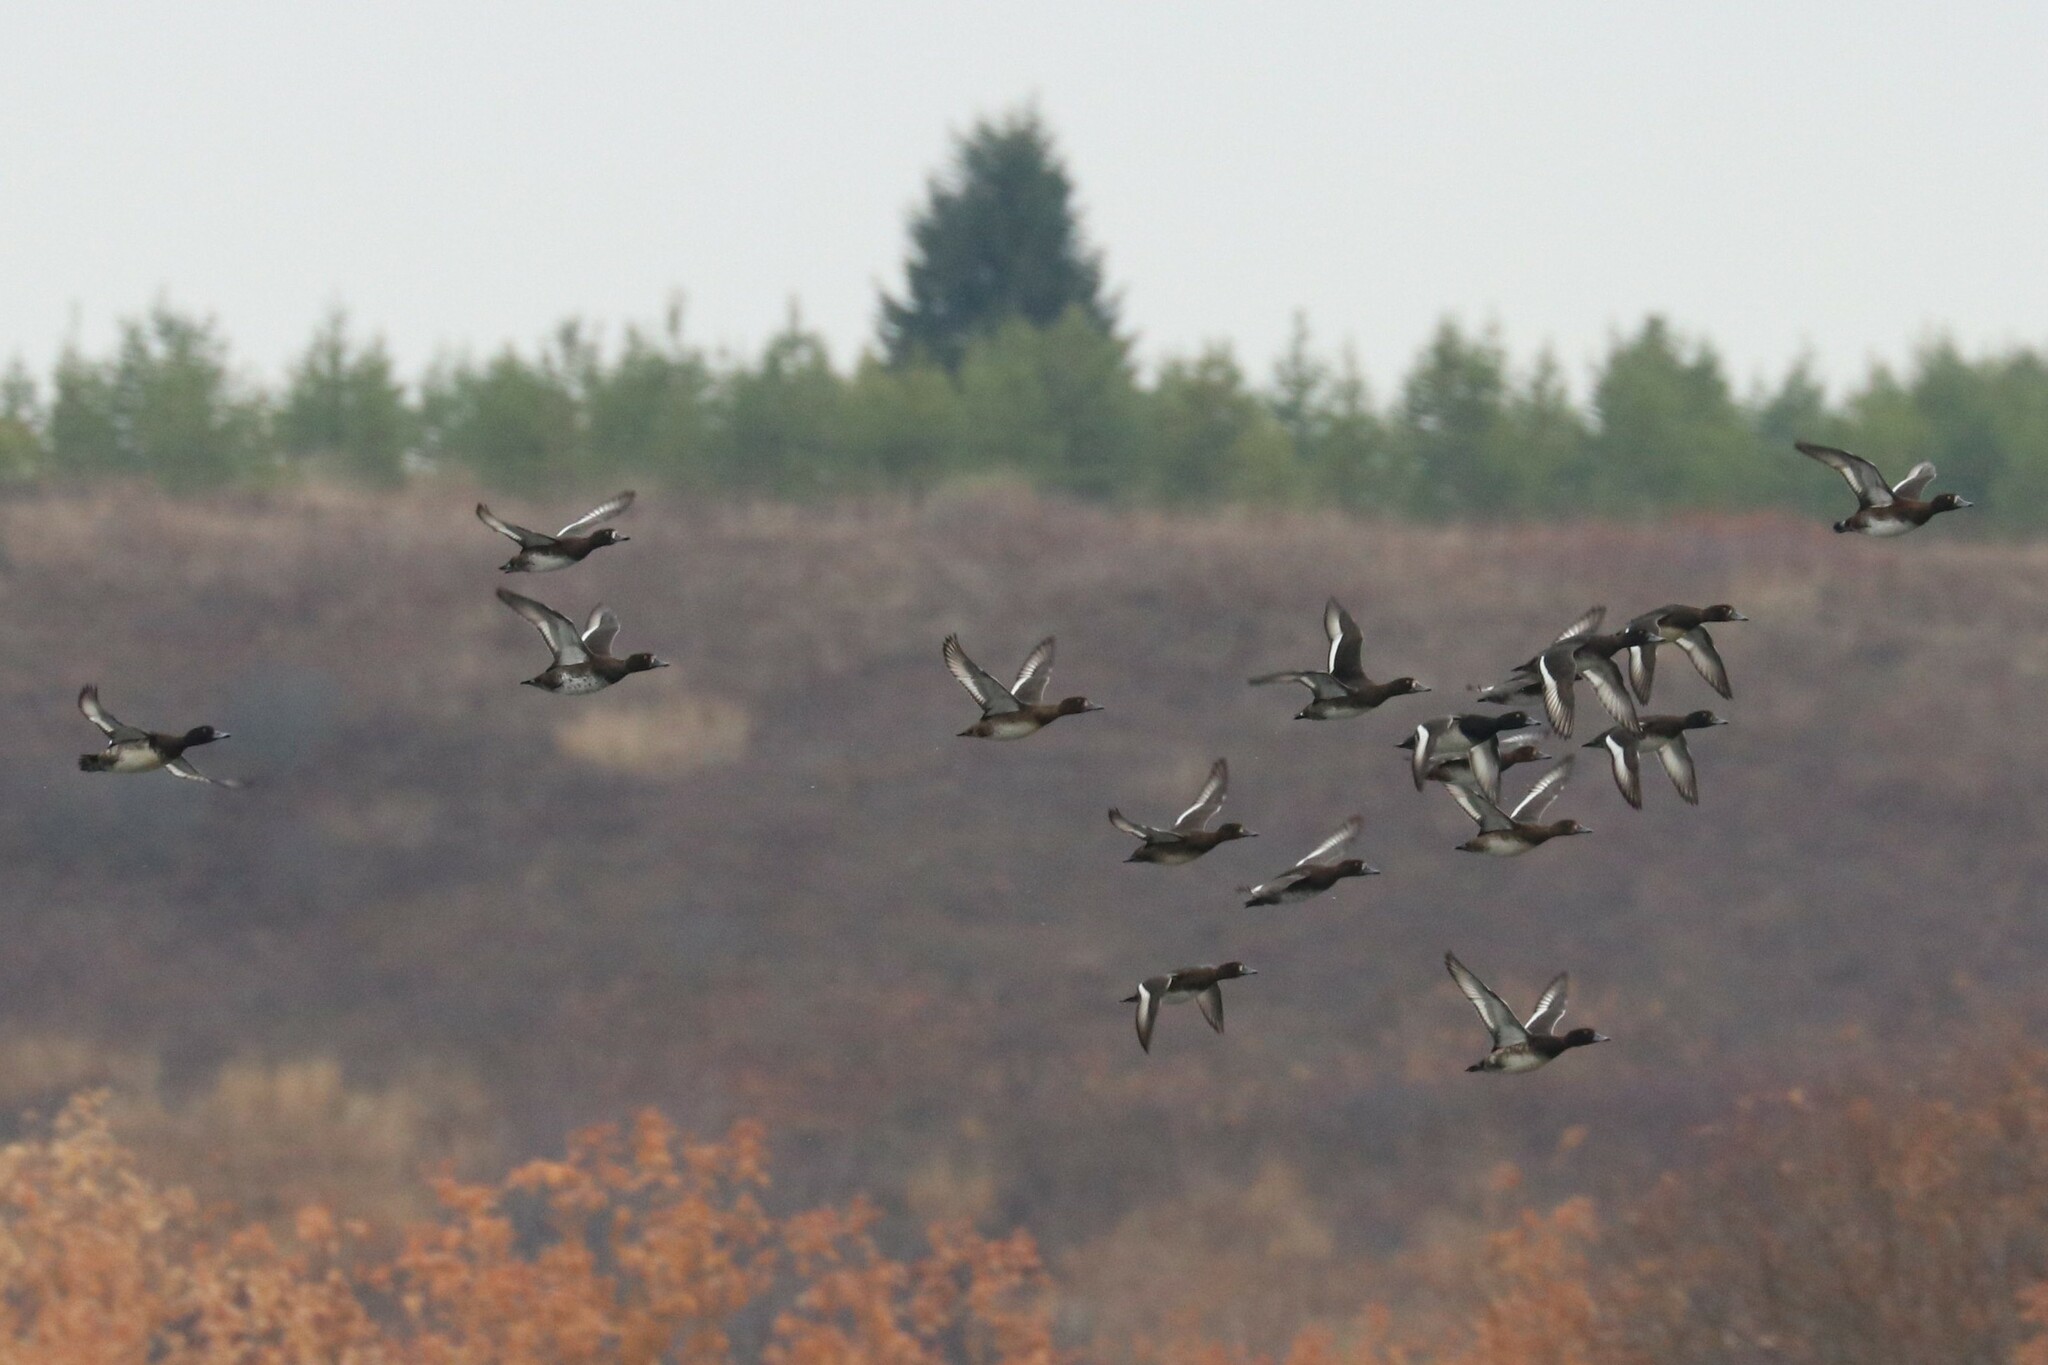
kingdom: Animalia
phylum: Chordata
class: Aves
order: Anseriformes
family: Anatidae
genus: Aythya
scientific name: Aythya fuligula
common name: Tufted duck
